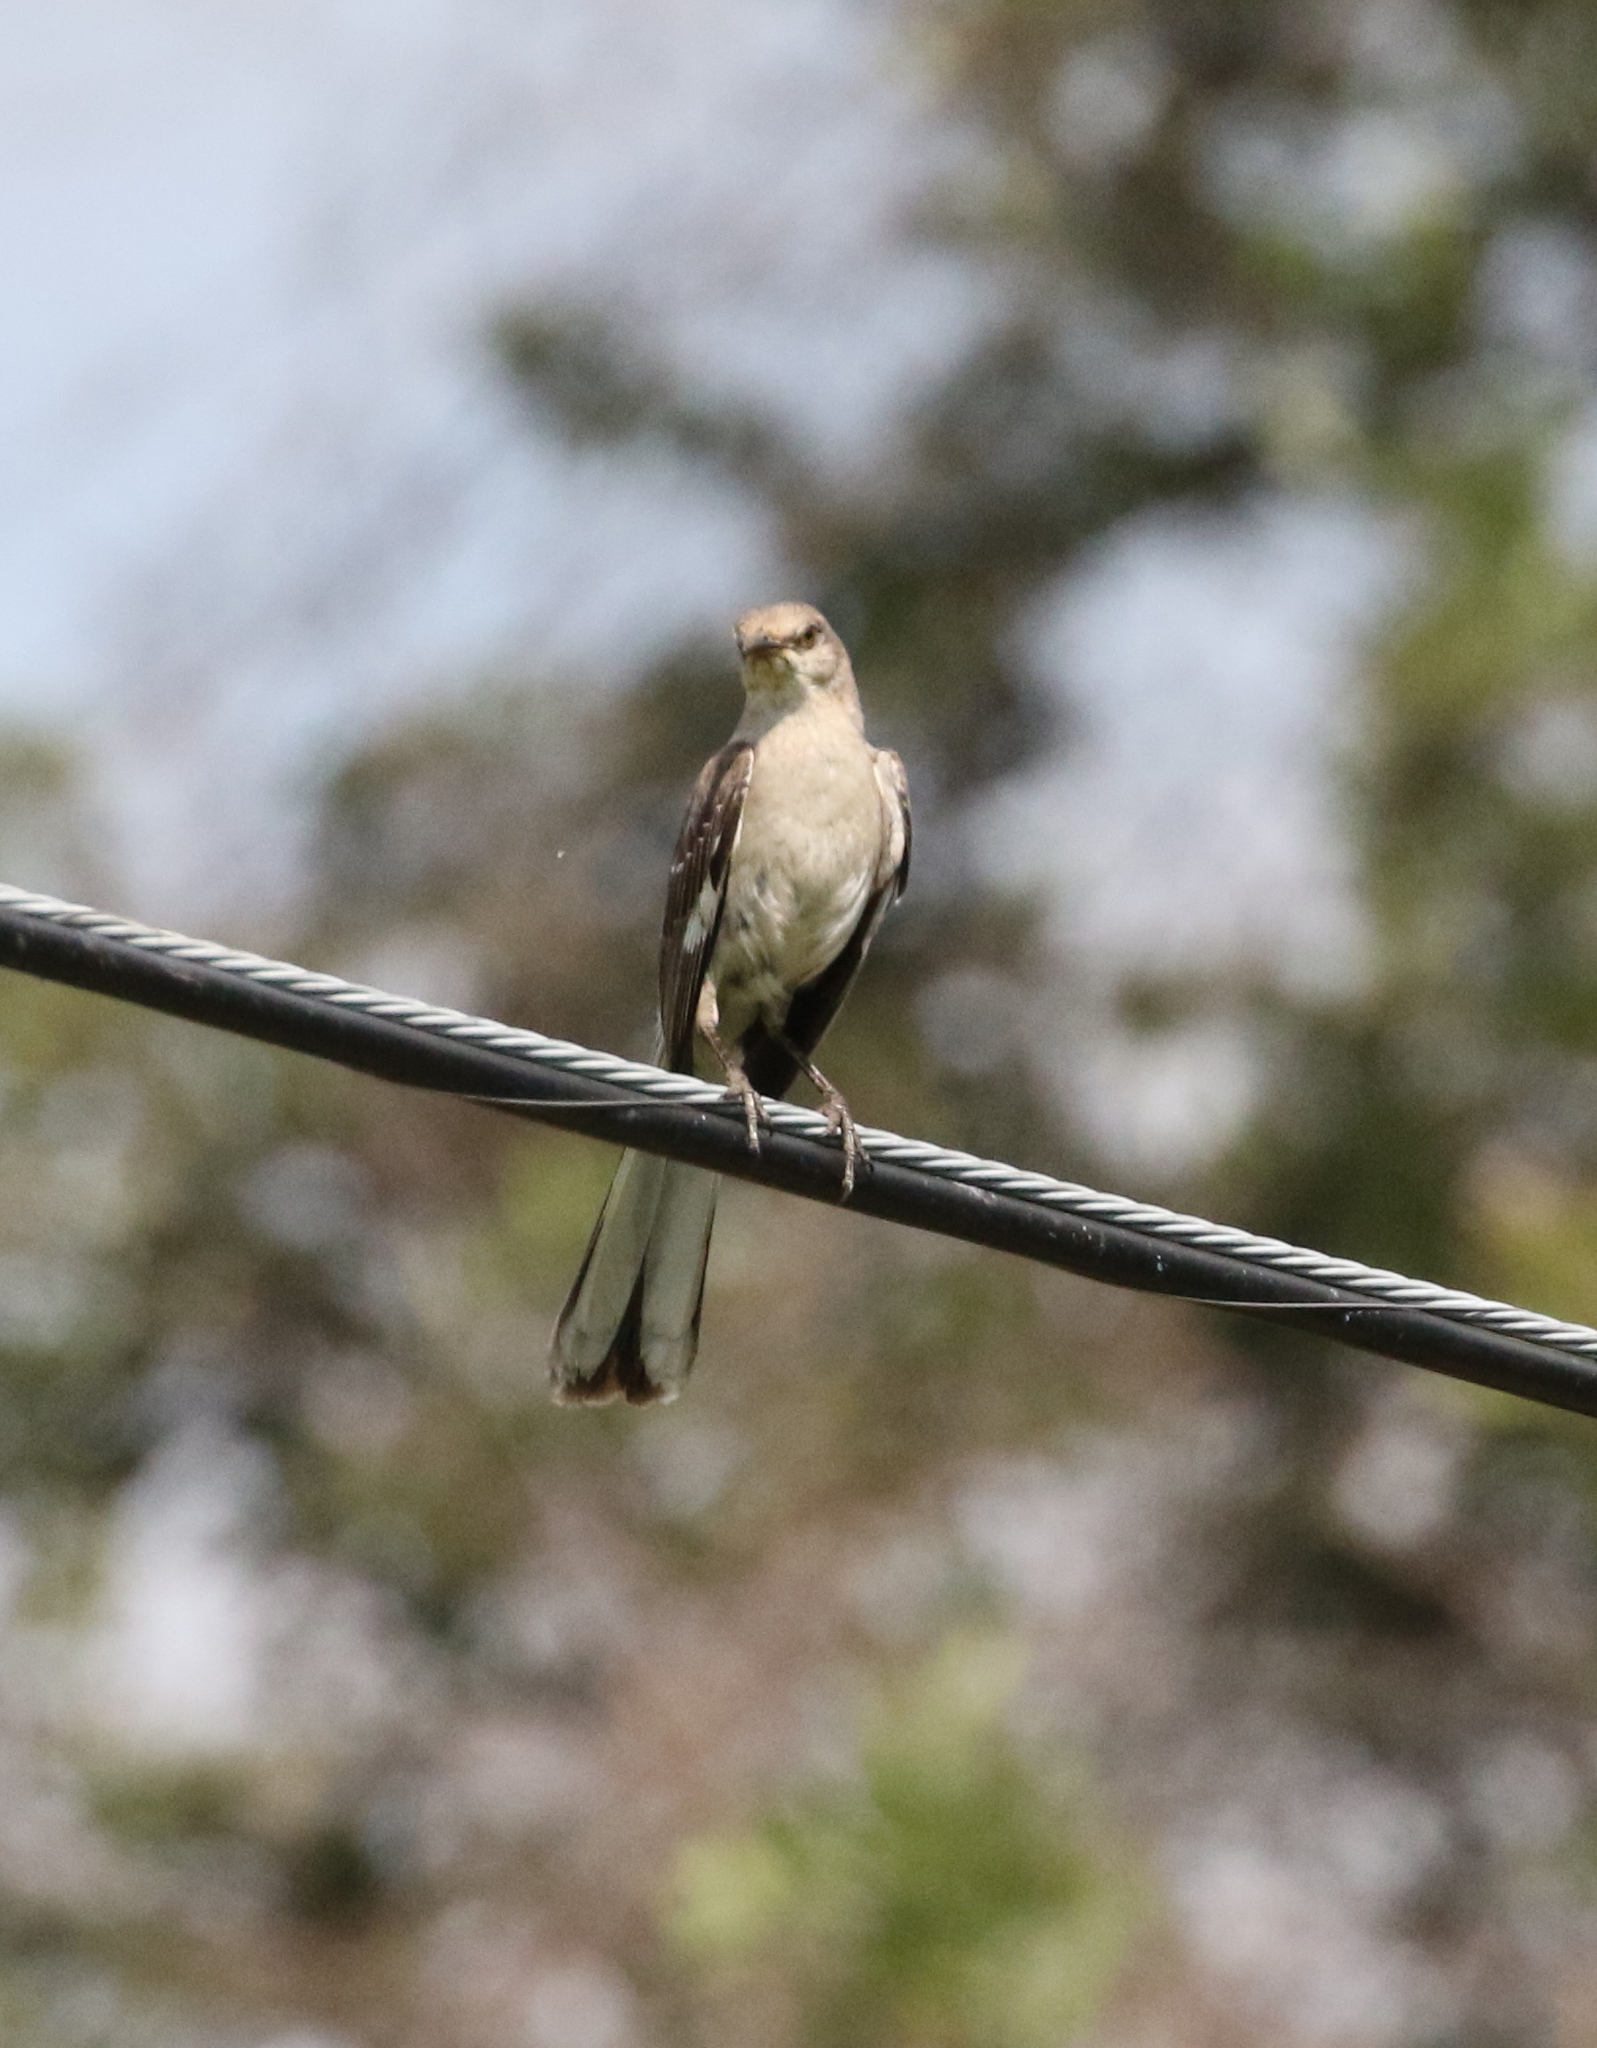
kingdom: Animalia
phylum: Chordata
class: Aves
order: Passeriformes
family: Mimidae
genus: Mimus
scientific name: Mimus polyglottos
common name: Northern mockingbird
